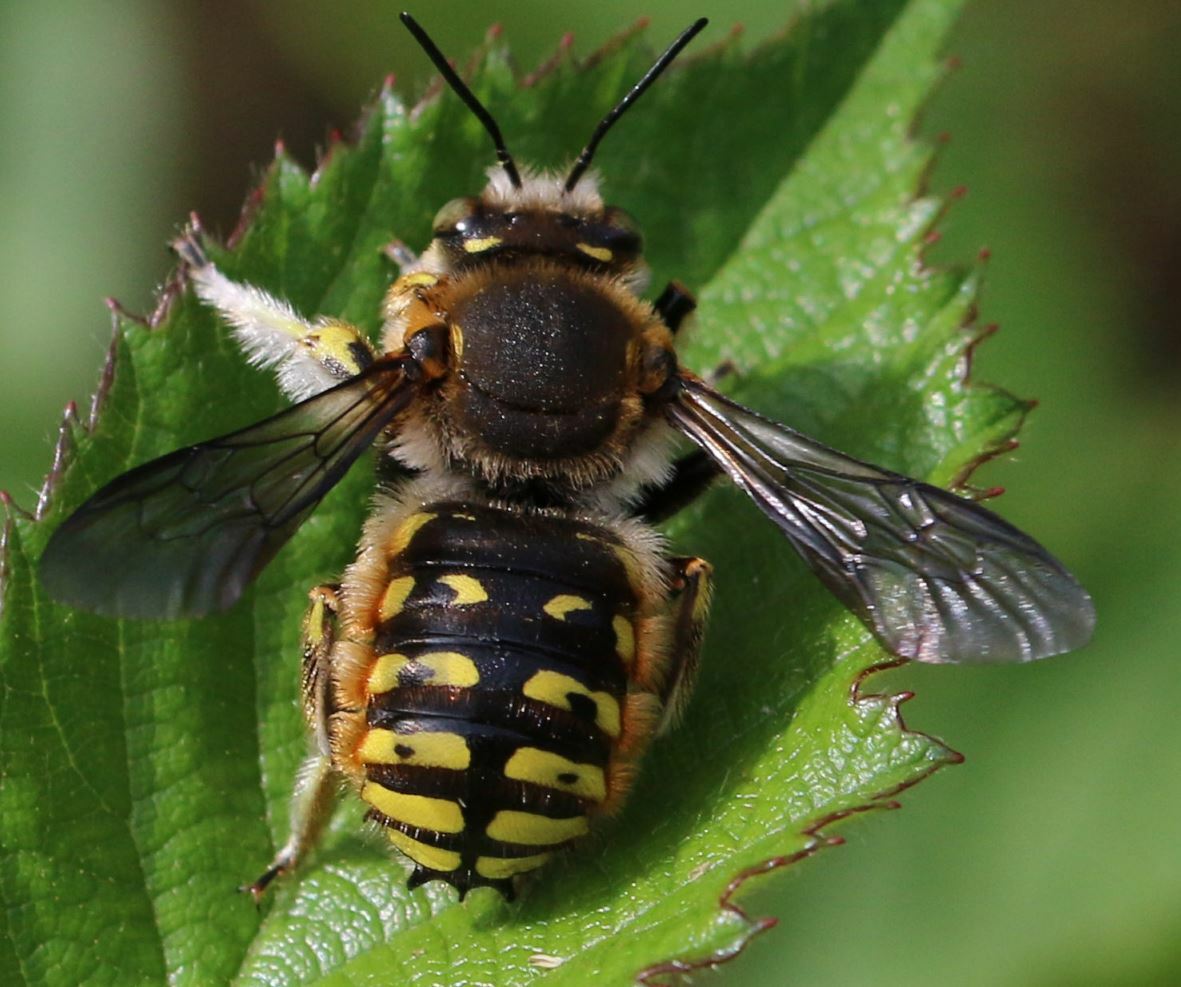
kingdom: Animalia
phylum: Arthropoda
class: Insecta
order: Hymenoptera
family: Megachilidae
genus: Anthidium
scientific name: Anthidium manicatum
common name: Wool carder bee
